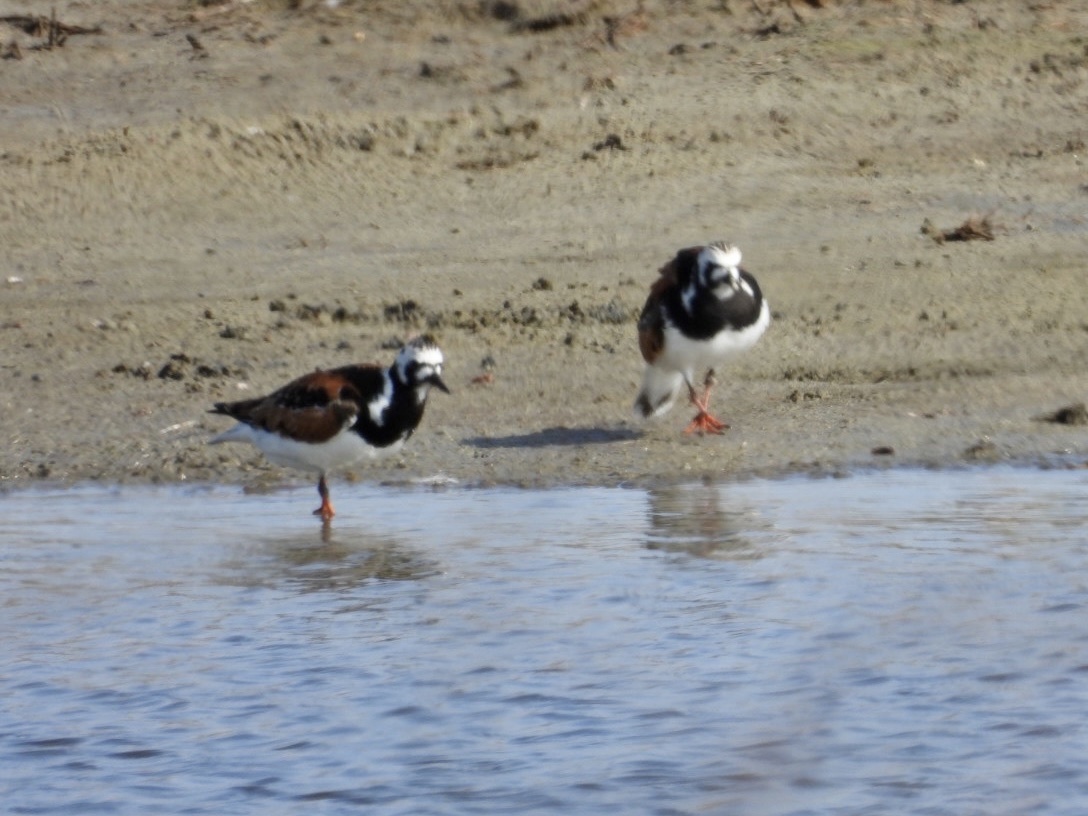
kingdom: Animalia
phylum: Chordata
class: Aves
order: Charadriiformes
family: Scolopacidae
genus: Arenaria
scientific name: Arenaria interpres
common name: Ruddy turnstone
